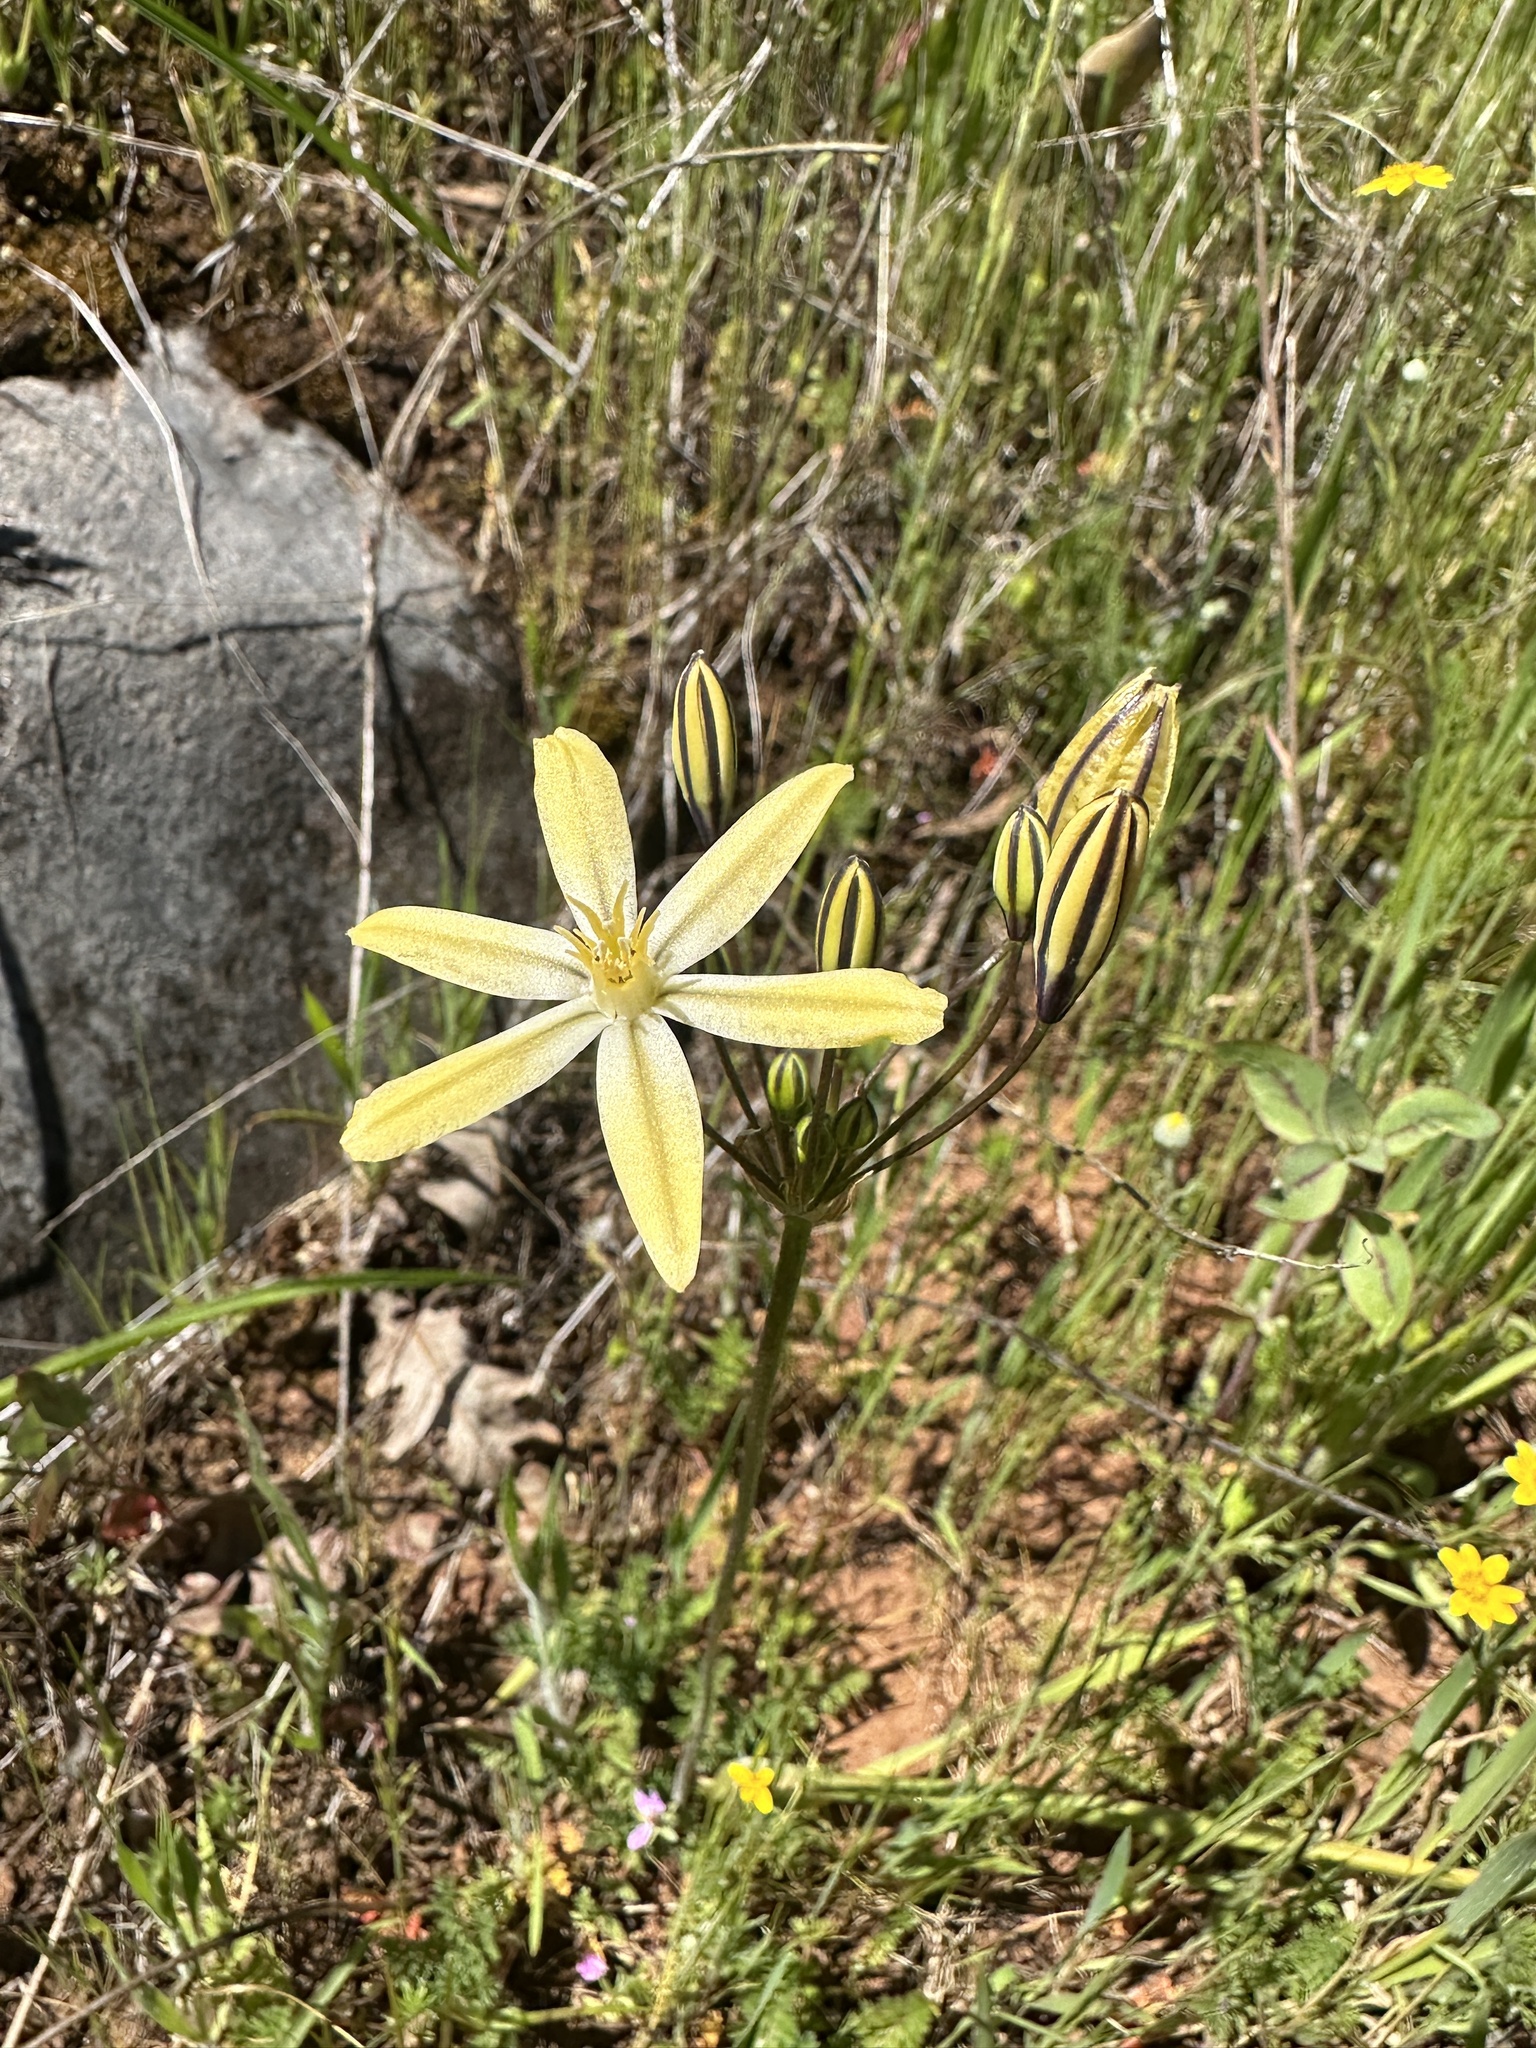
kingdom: Plantae
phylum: Tracheophyta
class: Liliopsida
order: Asparagales
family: Asparagaceae
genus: Triteleia
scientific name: Triteleia ixioides
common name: Yellow-brodiaea
